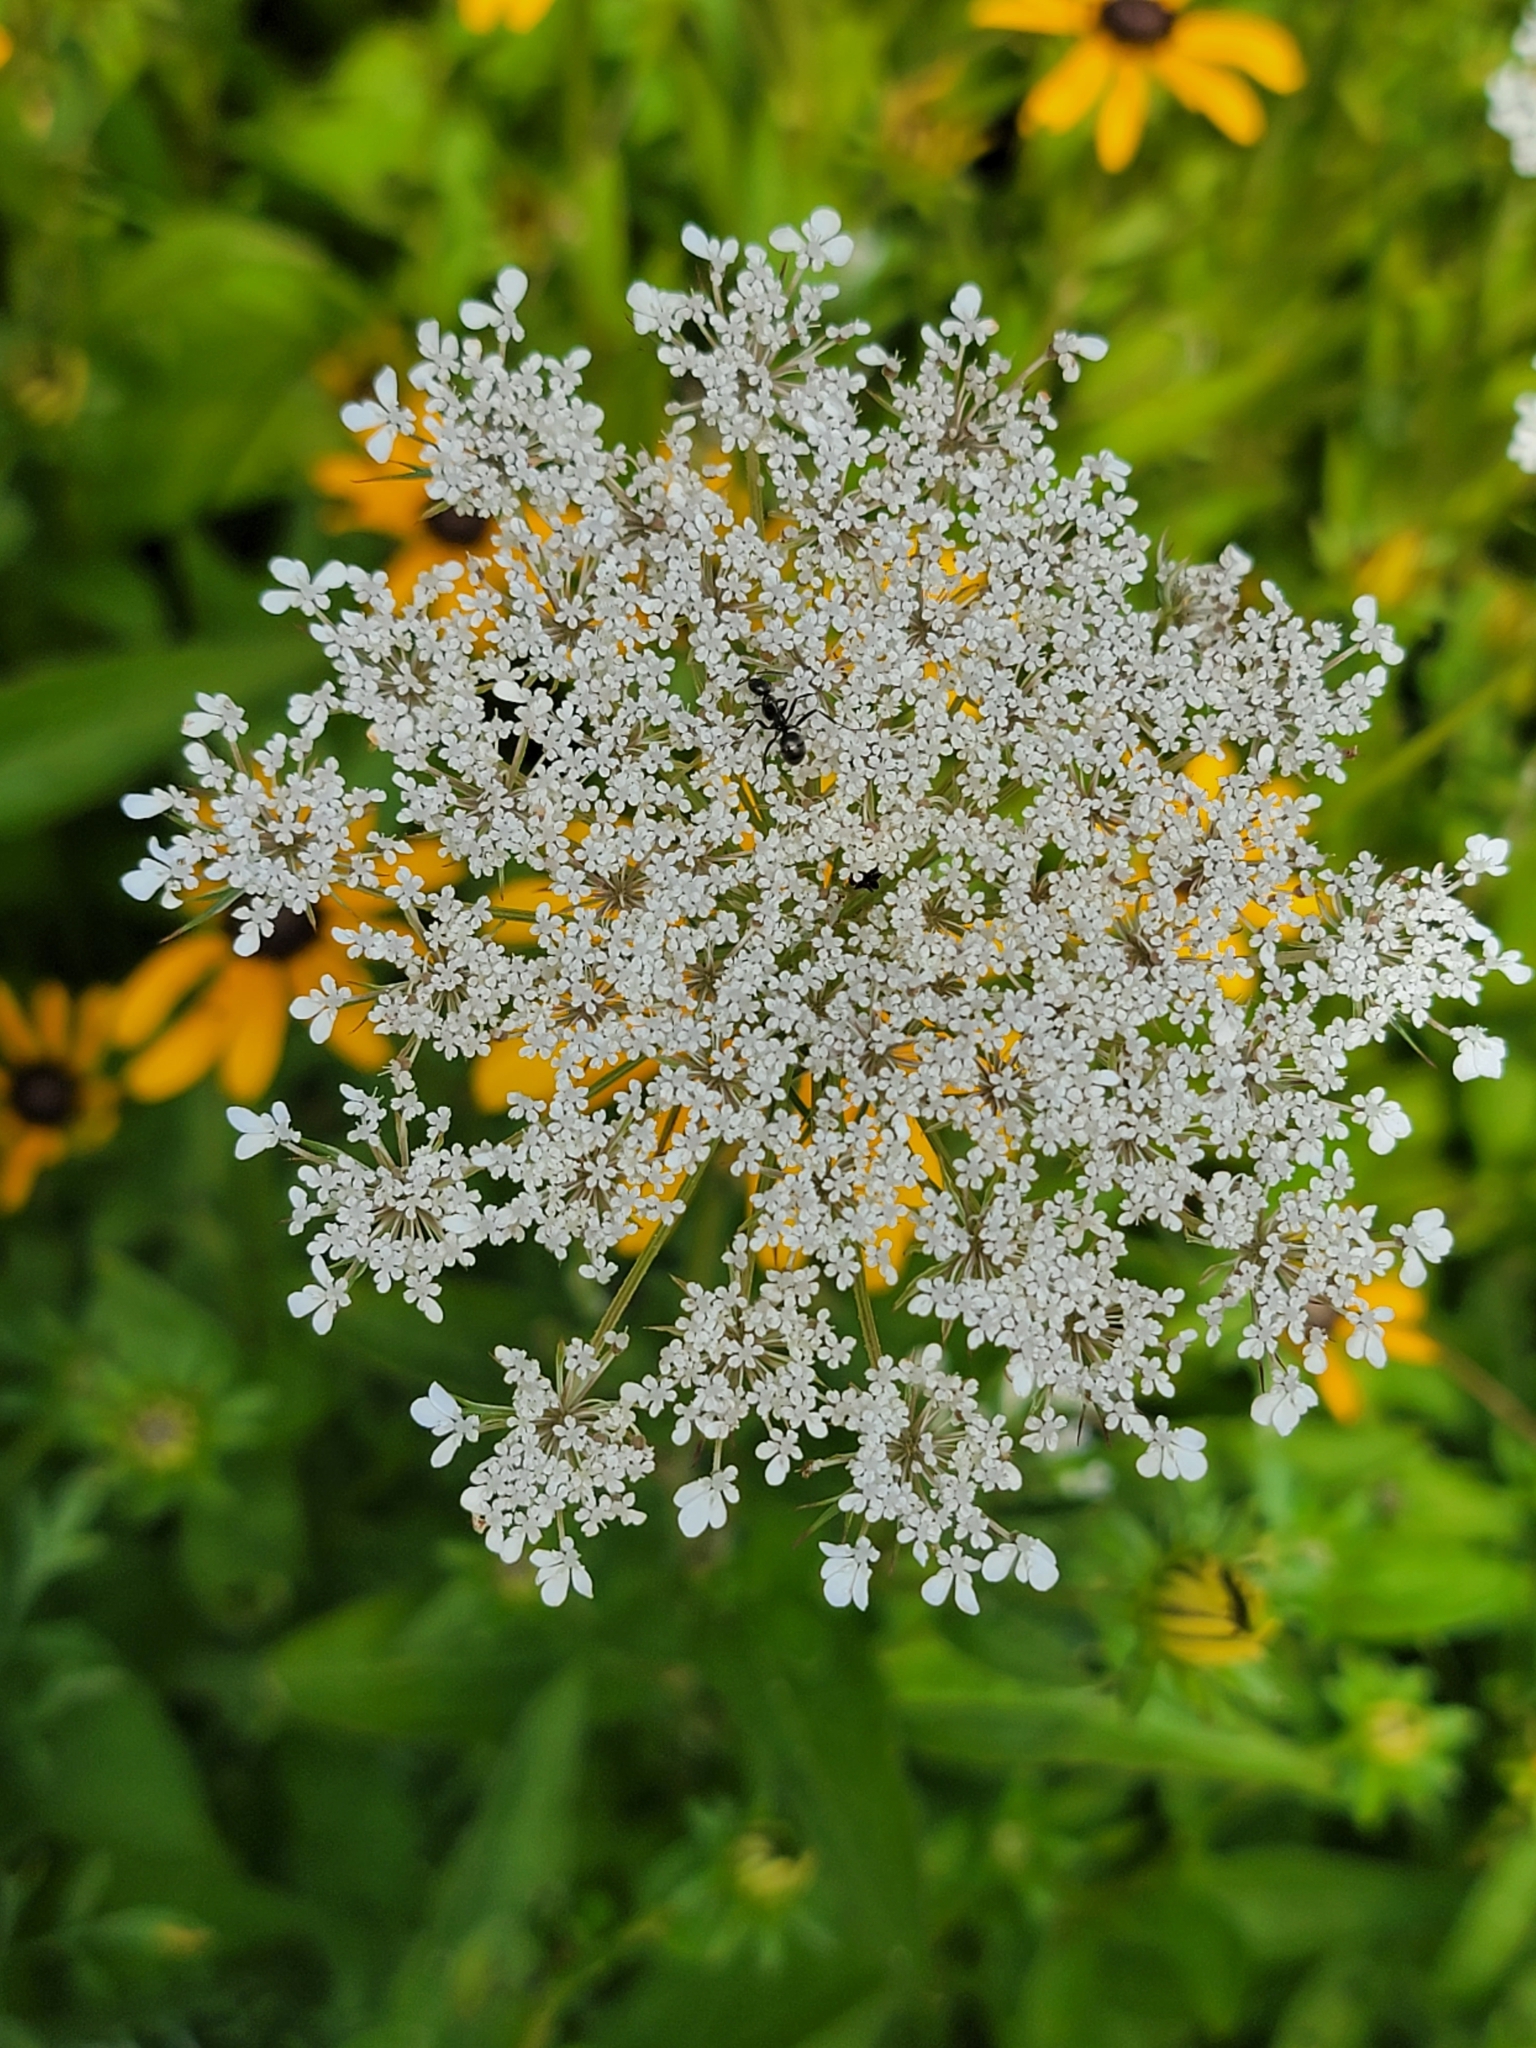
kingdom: Plantae
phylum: Tracheophyta
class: Magnoliopsida
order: Apiales
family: Apiaceae
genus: Daucus
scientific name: Daucus carota
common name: Wild carrot
